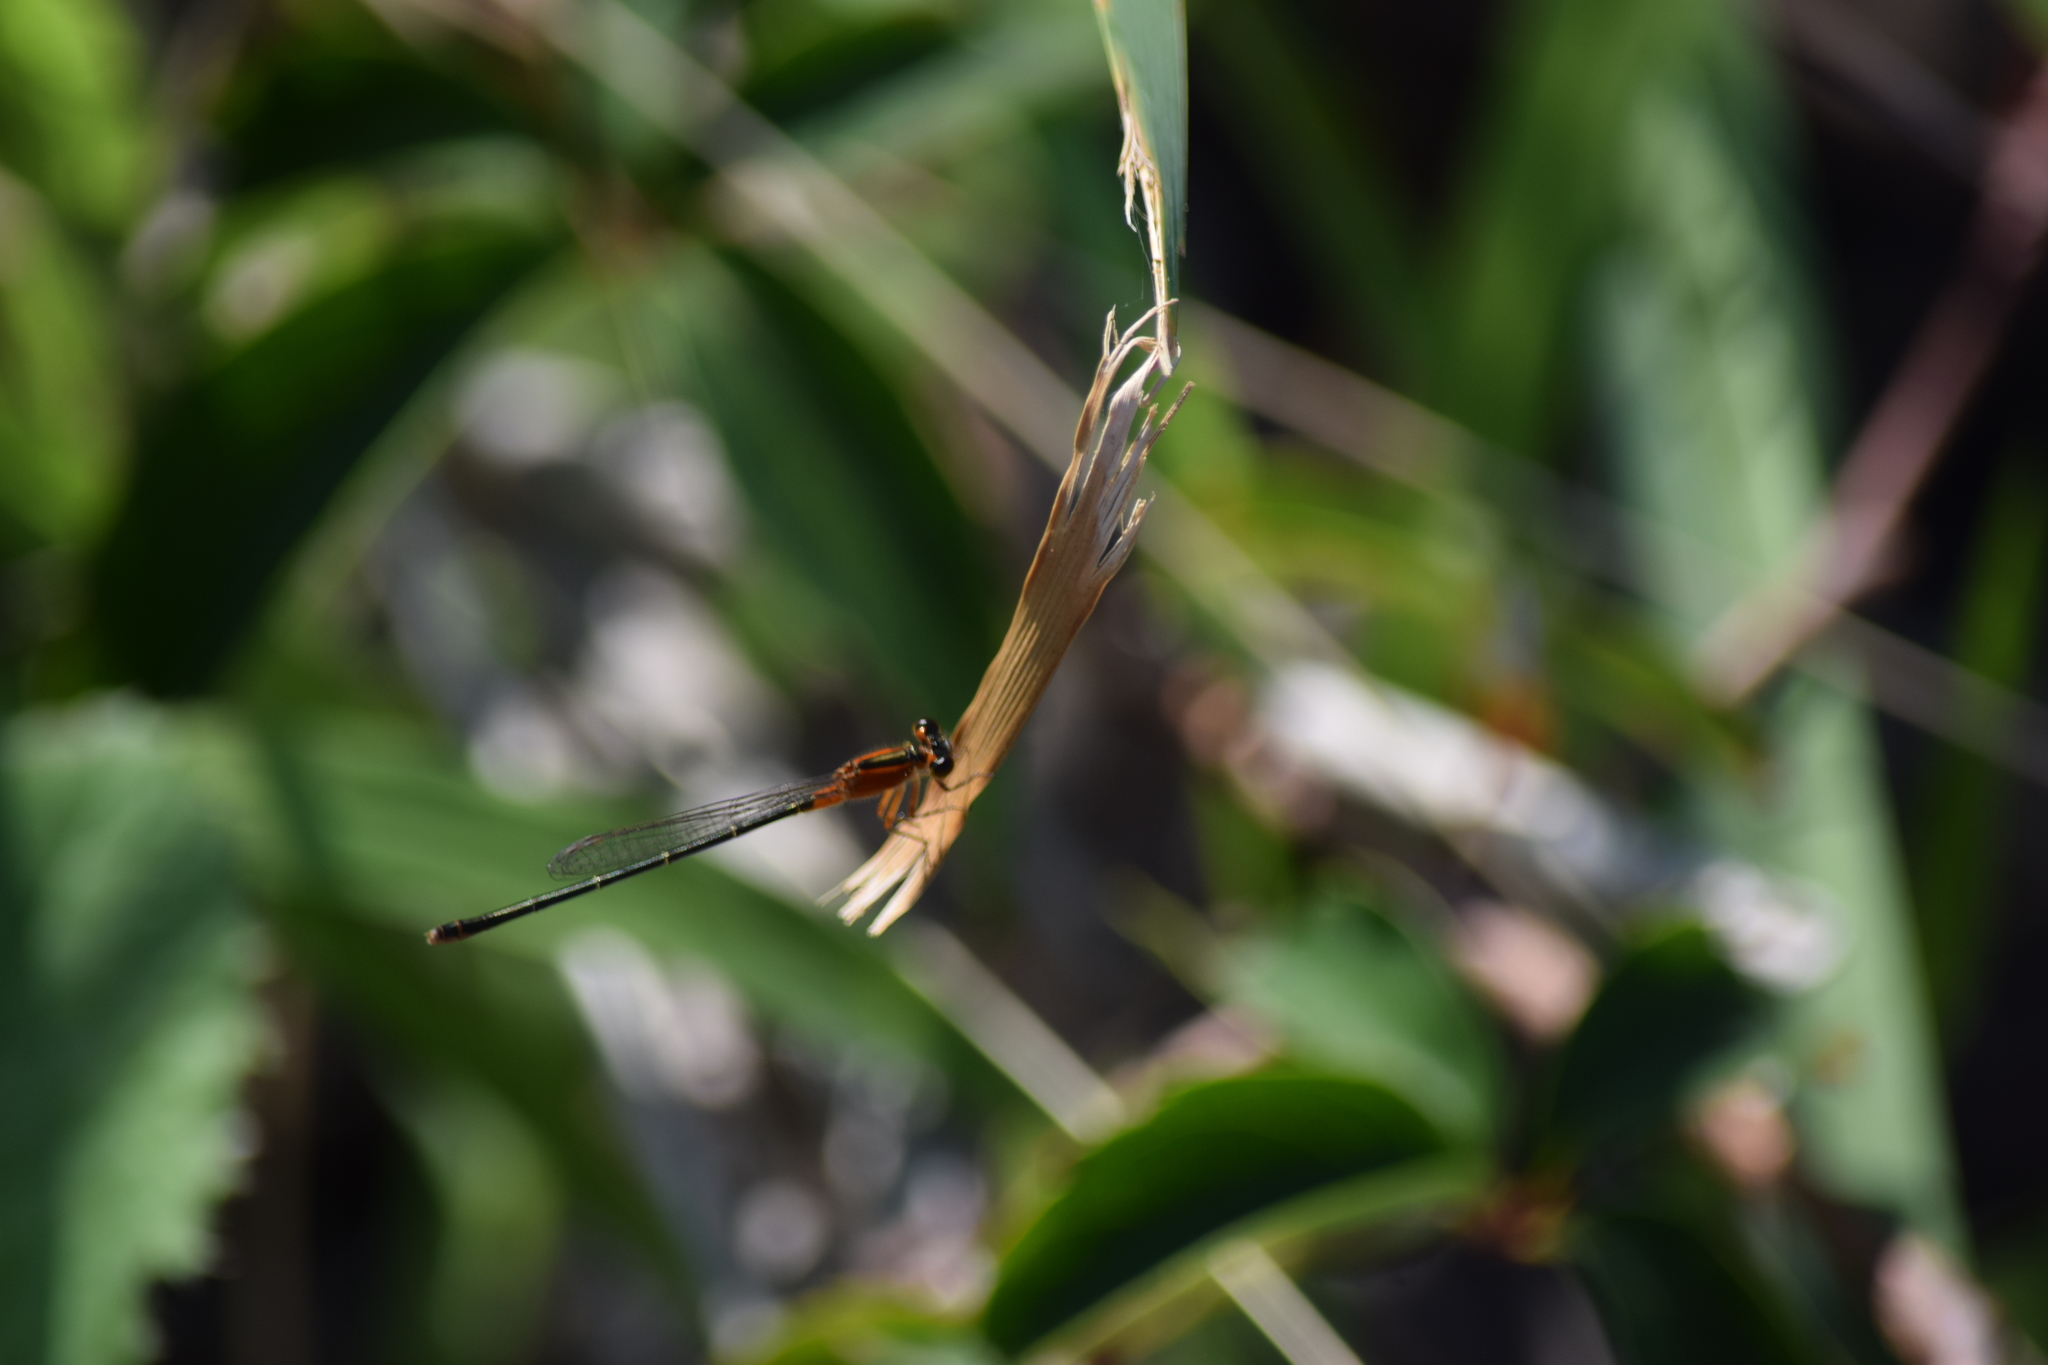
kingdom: Animalia
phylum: Arthropoda
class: Insecta
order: Odonata
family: Coenagrionidae
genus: Ischnura
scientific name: Ischnura ramburii
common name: Rambur's forktail
